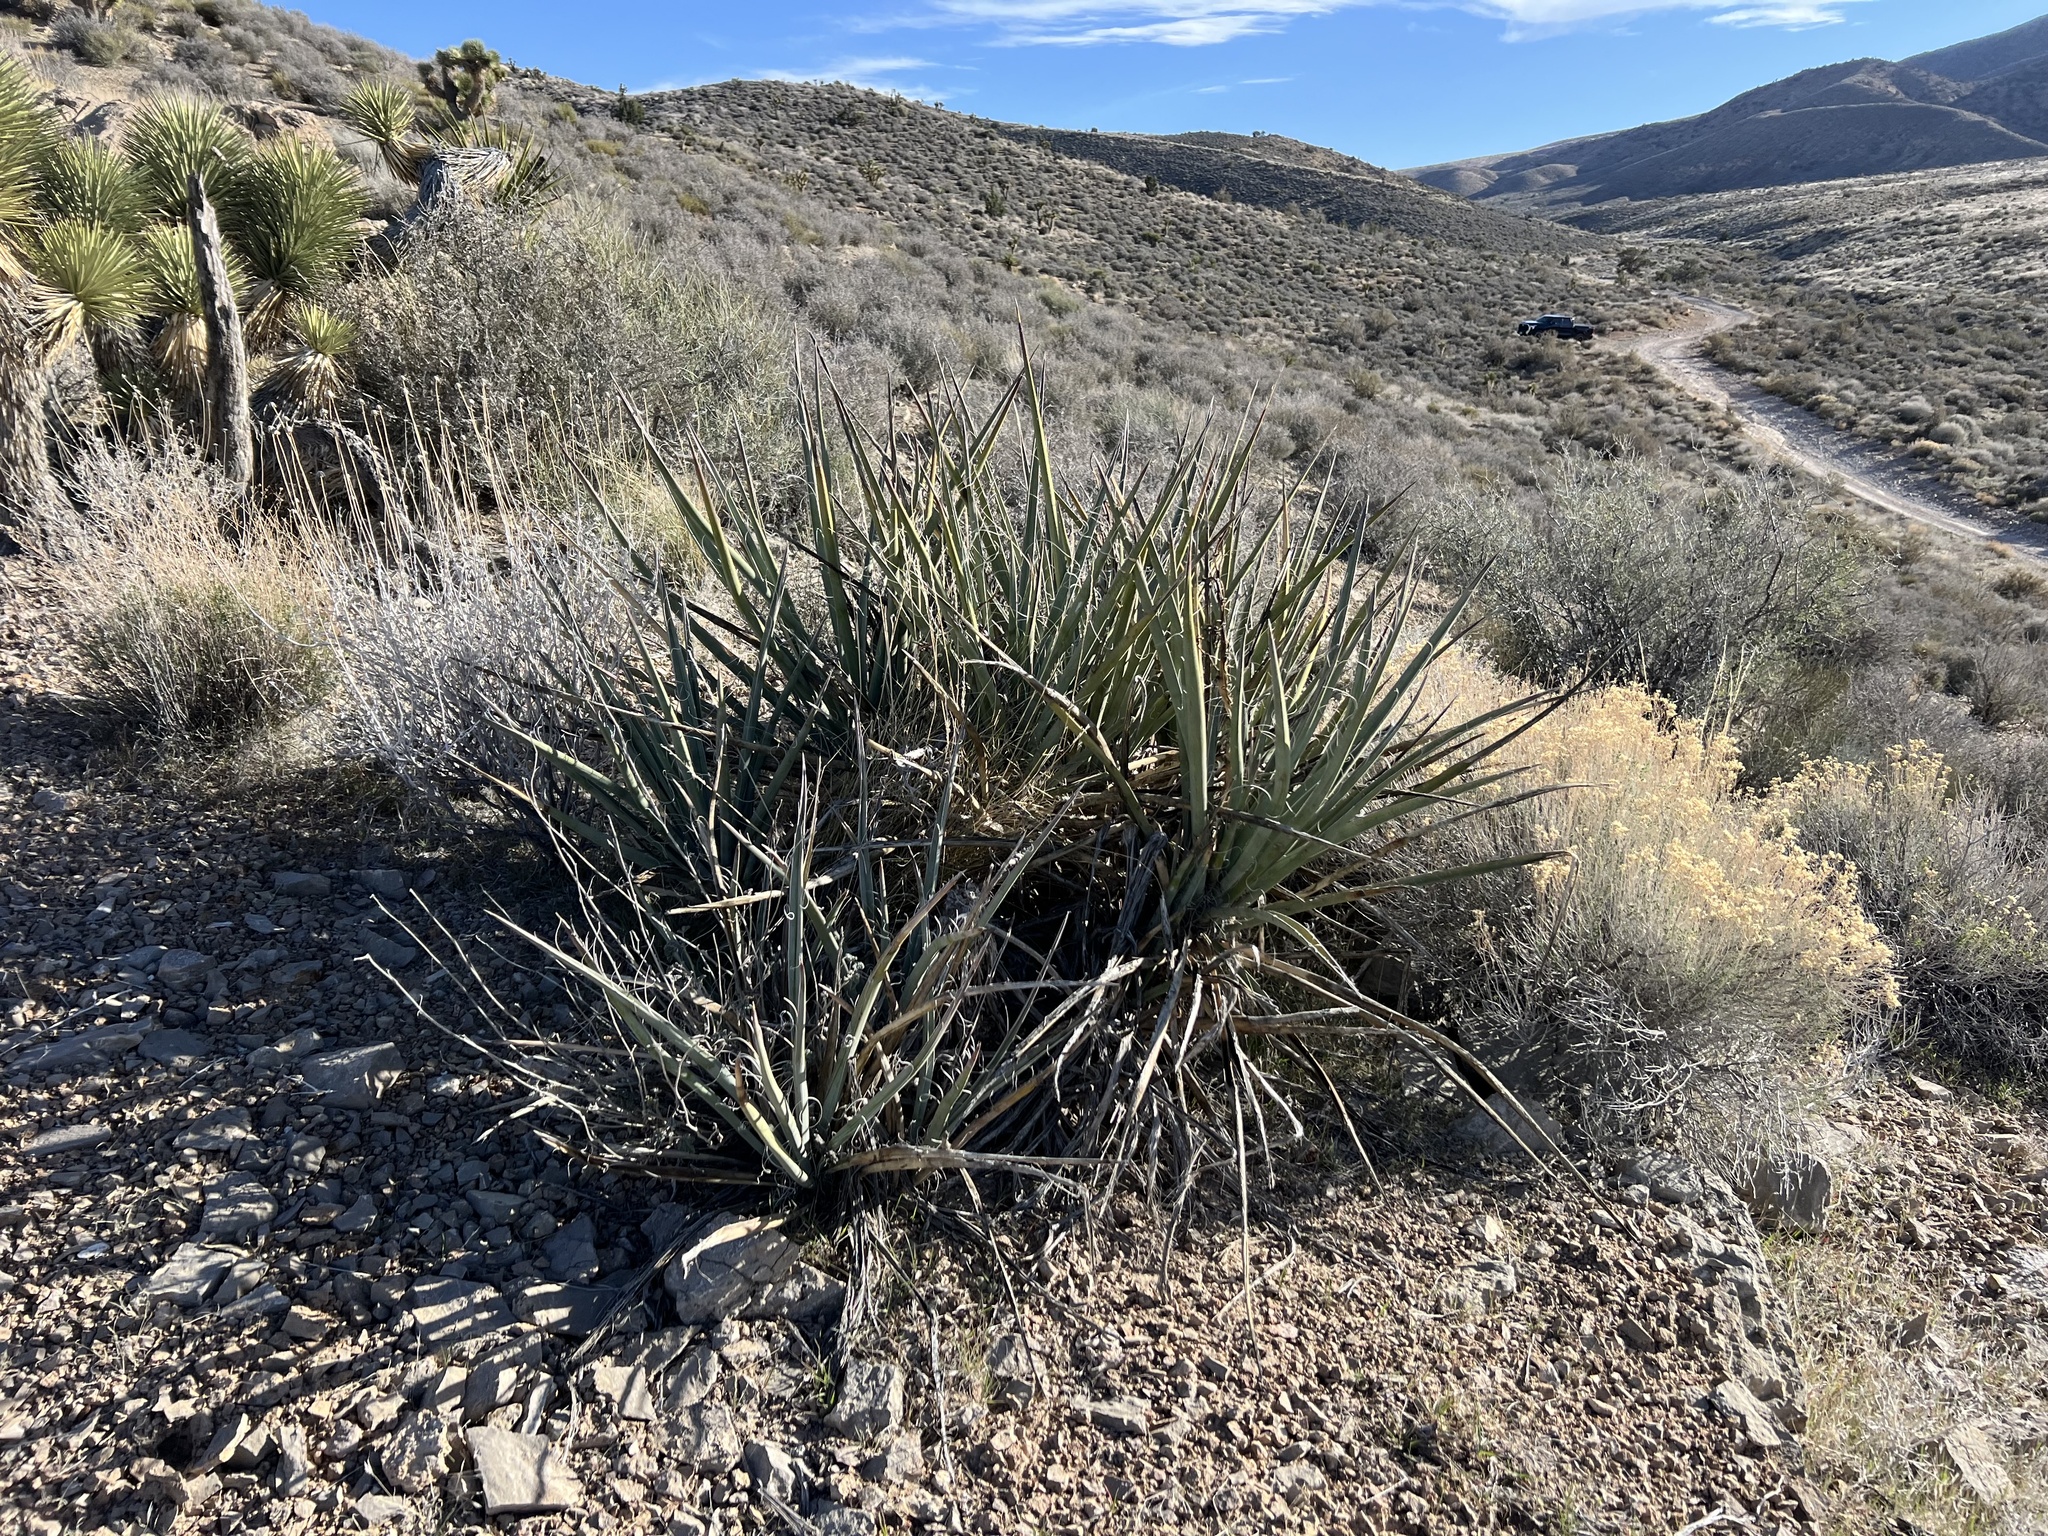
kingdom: Plantae
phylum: Tracheophyta
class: Liliopsida
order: Asparagales
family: Asparagaceae
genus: Yucca
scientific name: Yucca baccata
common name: Banana yucca
